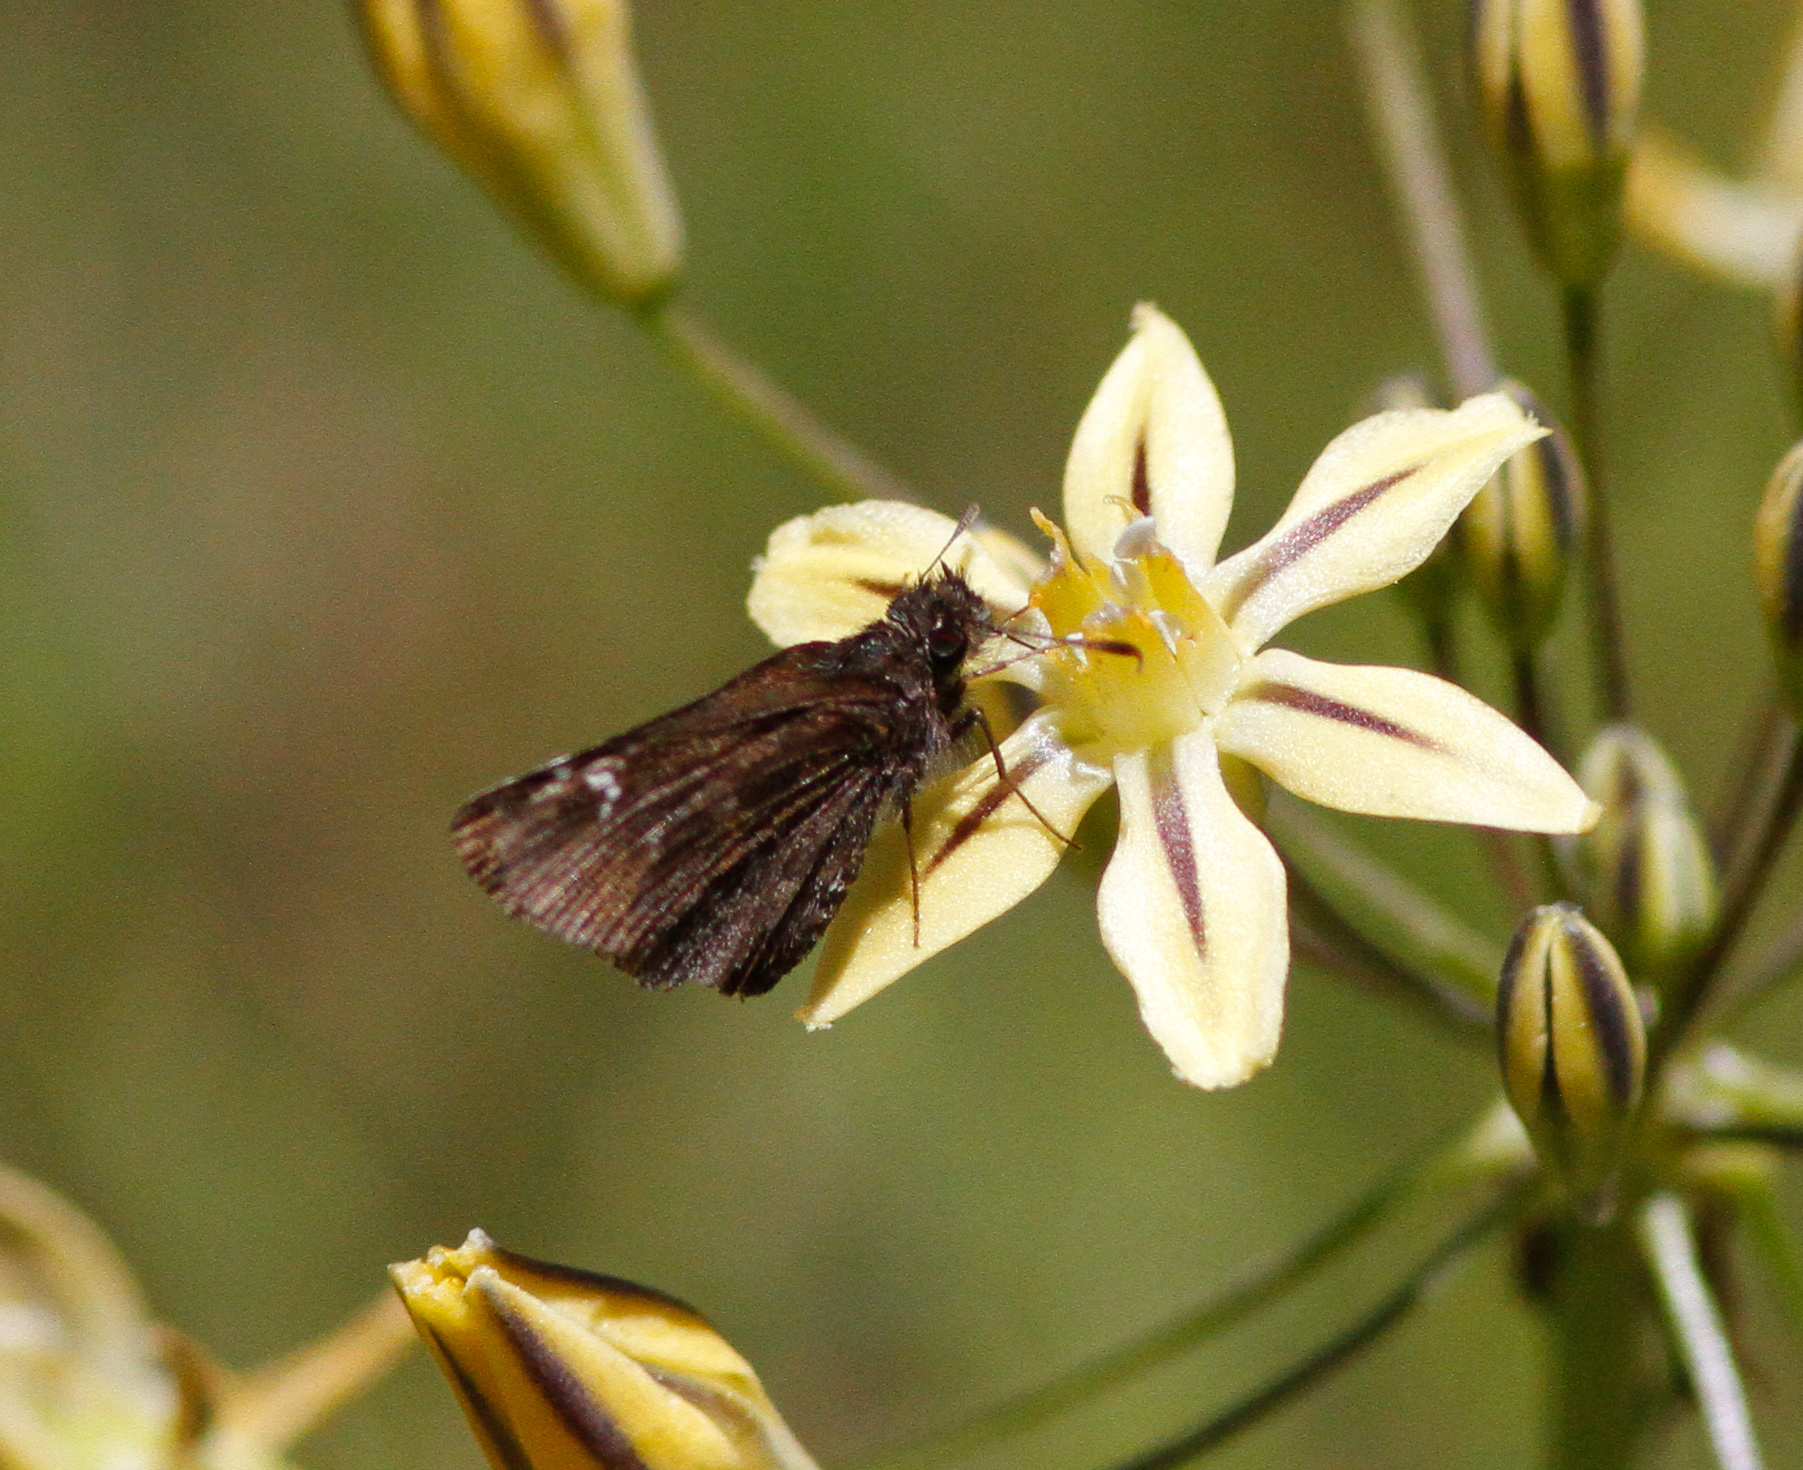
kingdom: Animalia
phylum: Arthropoda
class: Insecta
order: Lepidoptera
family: Hesperiidae
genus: Mastor
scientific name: Mastor vialis
